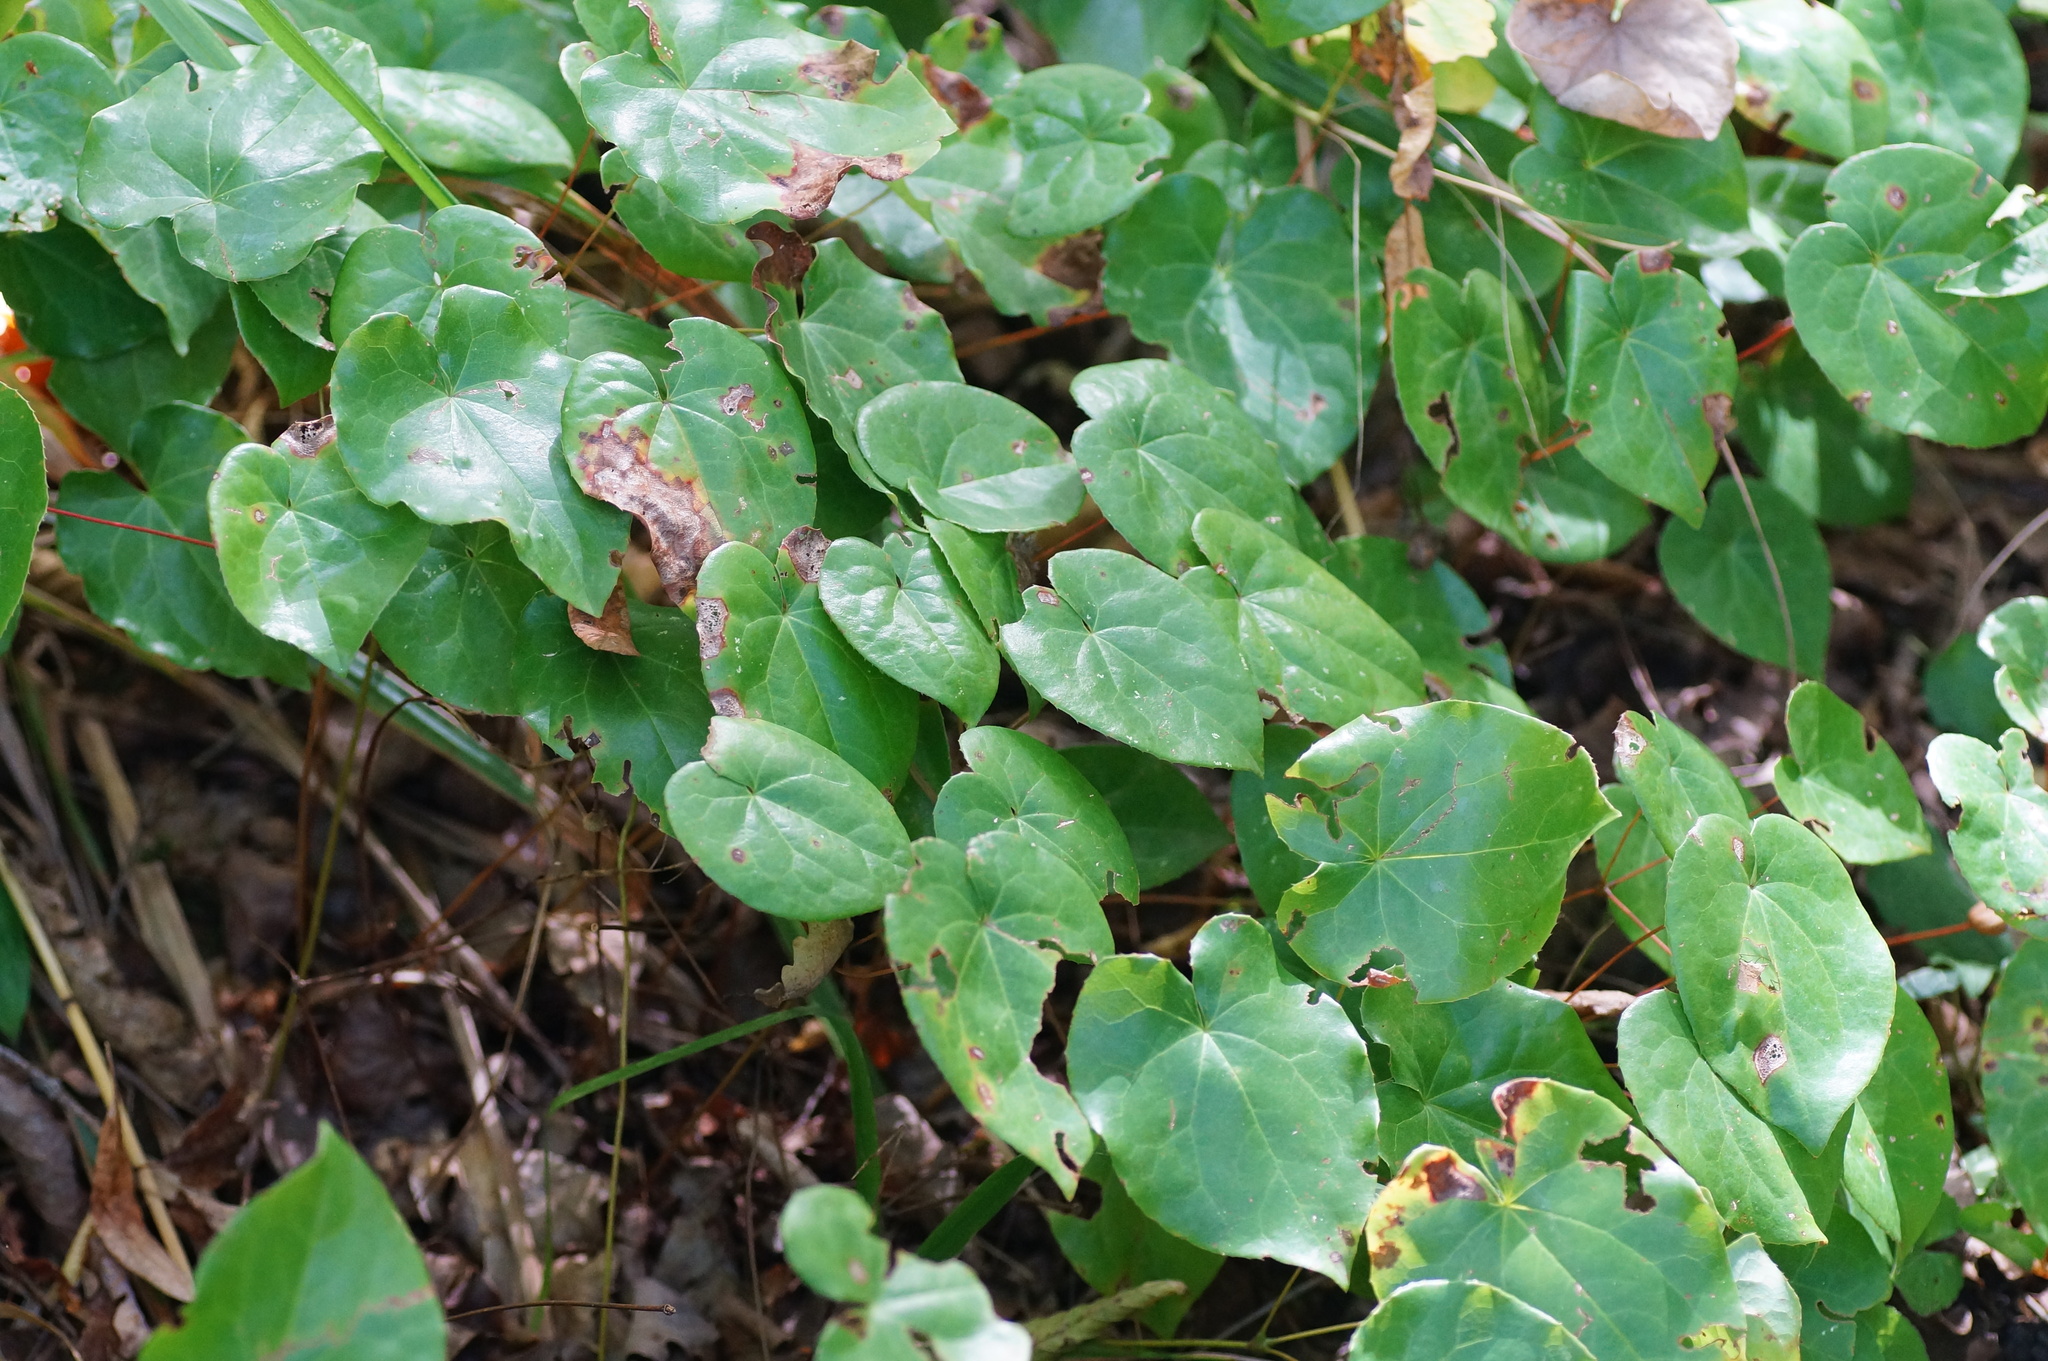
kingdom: Plantae
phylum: Tracheophyta
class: Magnoliopsida
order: Ranunculales
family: Berberidaceae
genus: Epimedium
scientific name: Epimedium pinnatum
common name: Caucasian barrenwort
